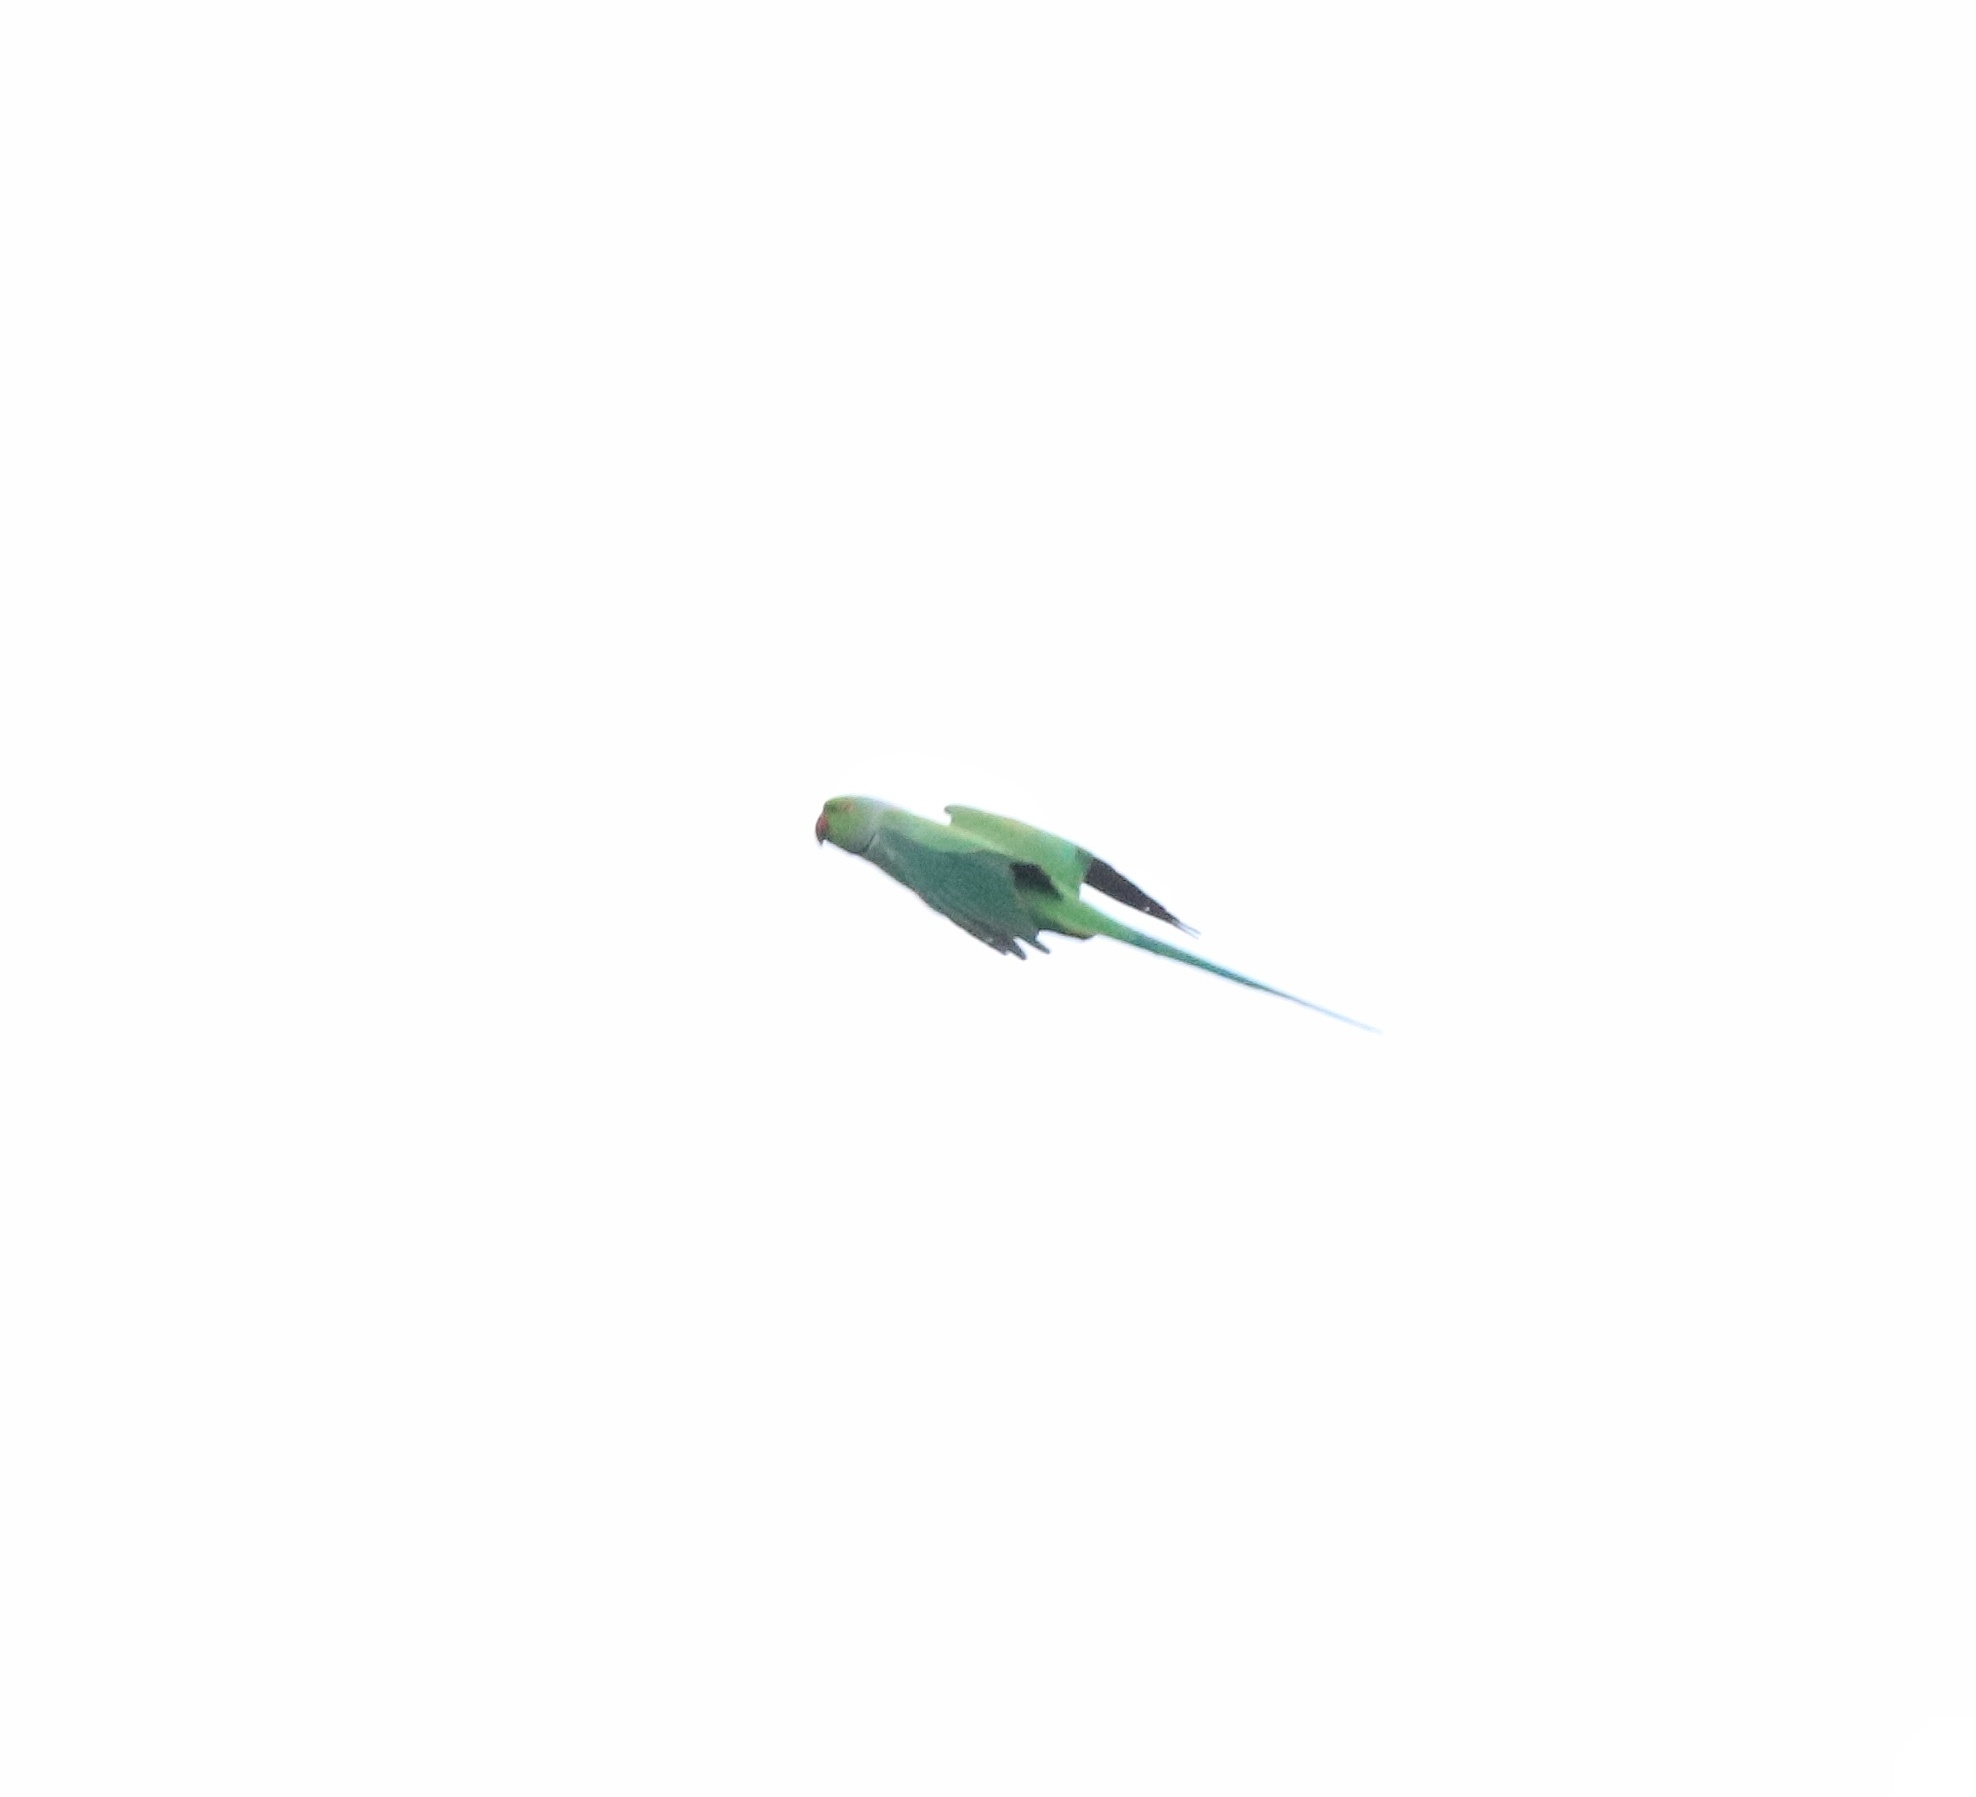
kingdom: Animalia
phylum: Chordata
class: Aves
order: Psittaciformes
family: Psittacidae
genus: Psittacula
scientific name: Psittacula krameri
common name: Rose-ringed parakeet
